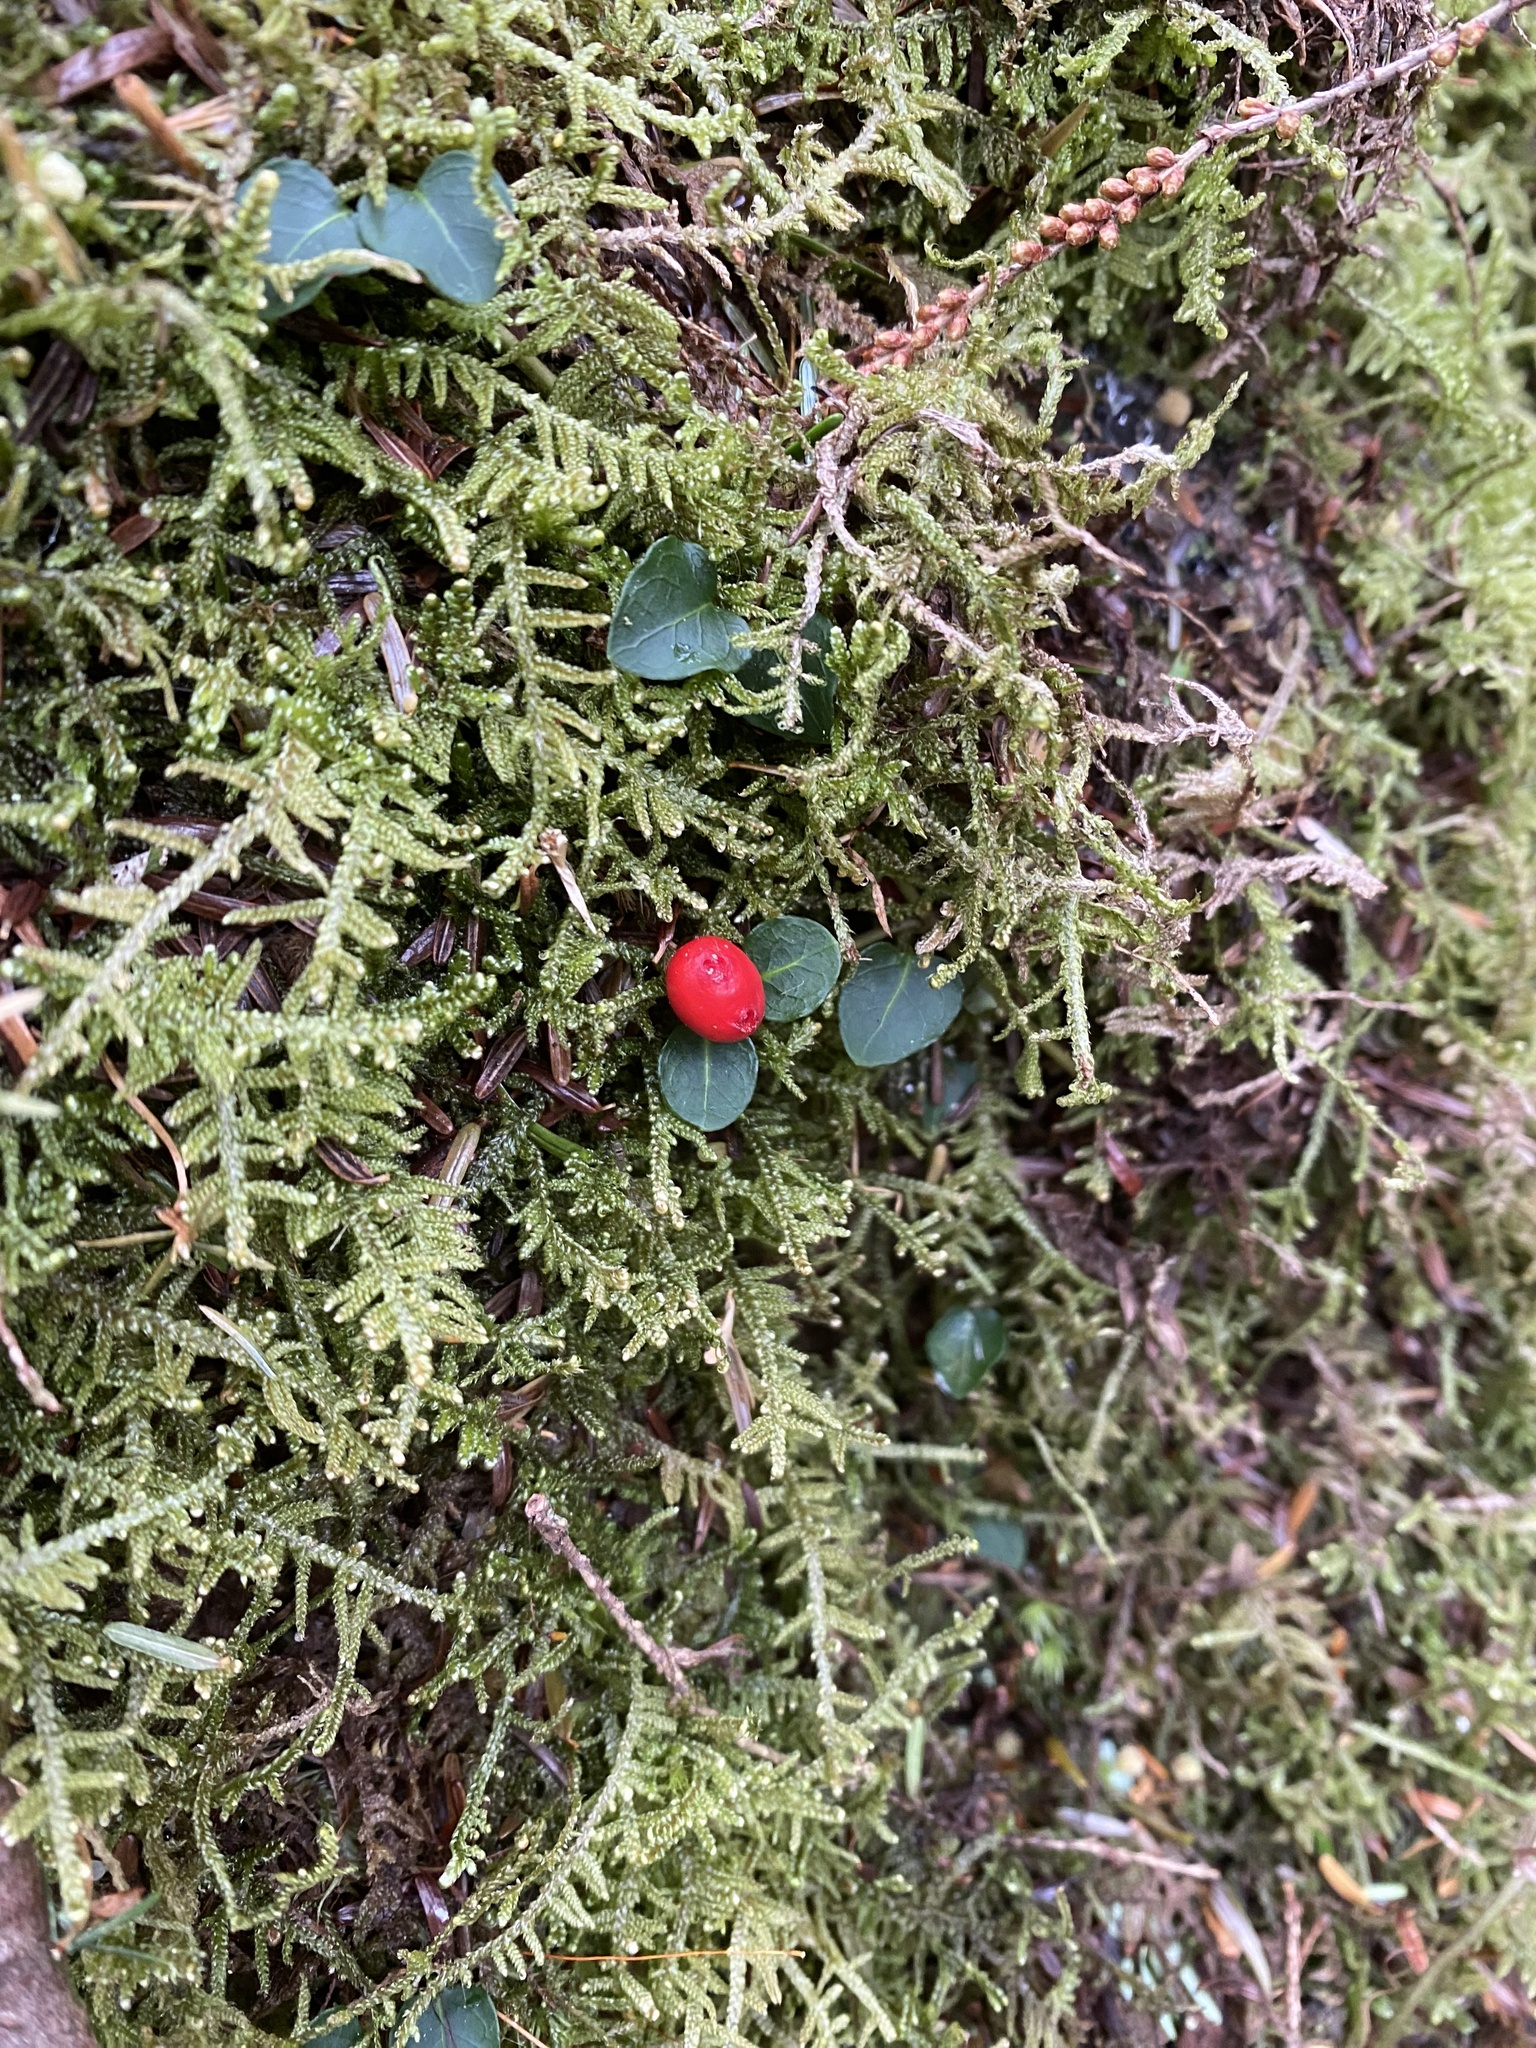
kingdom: Plantae
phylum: Tracheophyta
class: Magnoliopsida
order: Gentianales
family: Rubiaceae
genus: Mitchella
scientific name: Mitchella repens
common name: Partridge-berry
